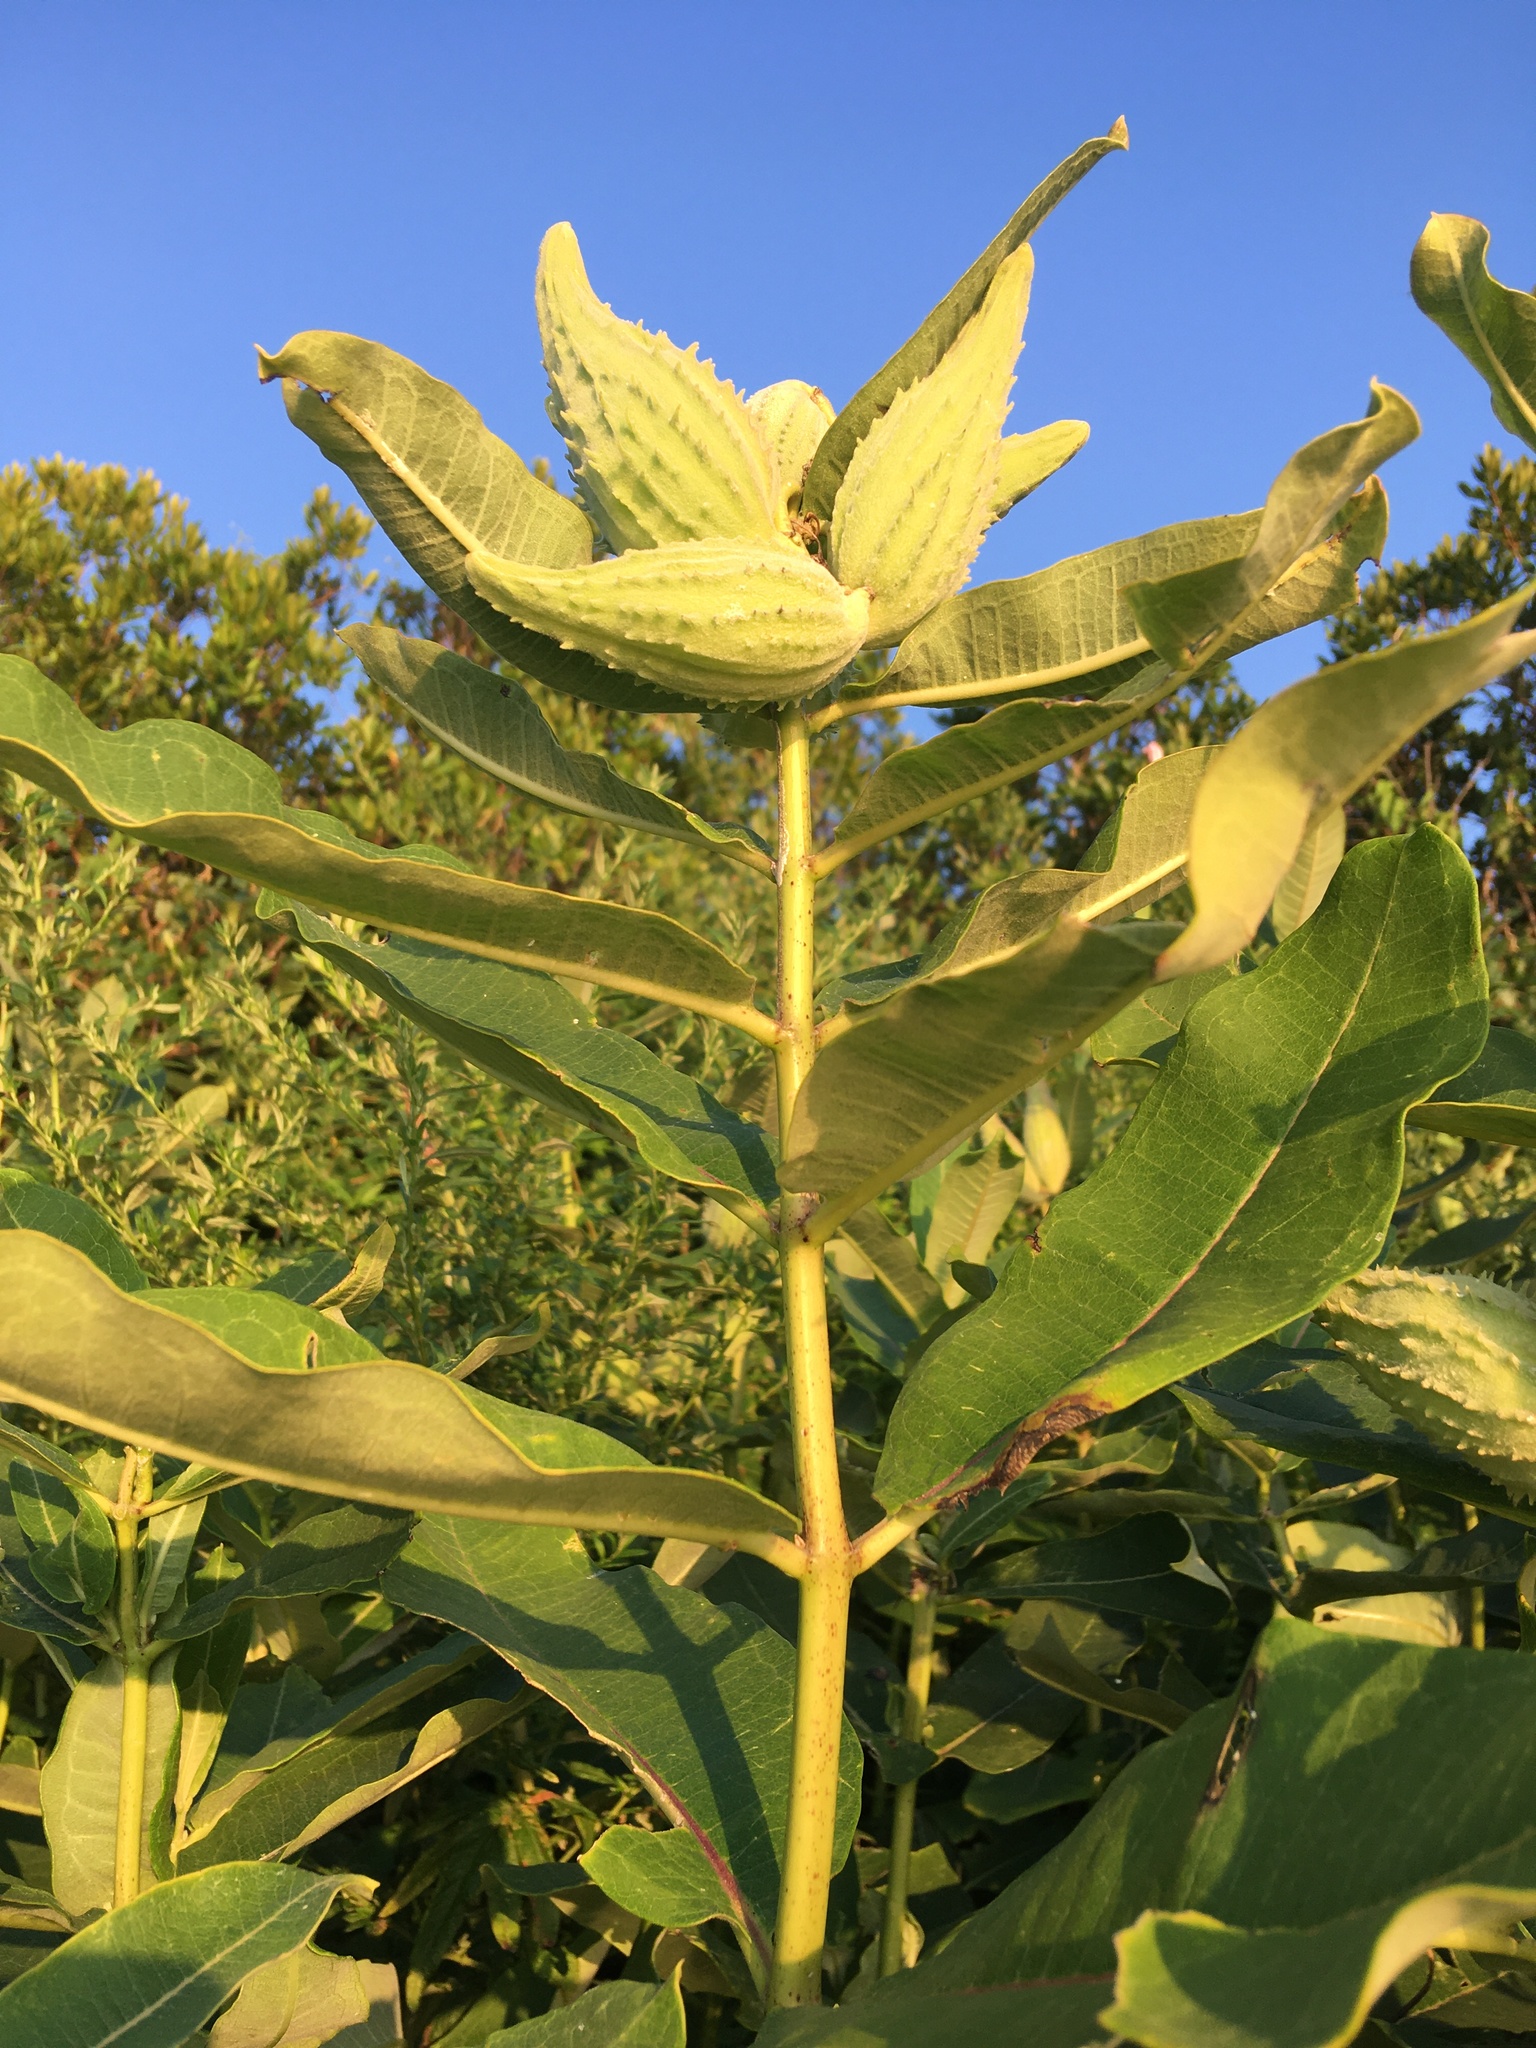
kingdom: Plantae
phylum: Tracheophyta
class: Magnoliopsida
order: Gentianales
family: Apocynaceae
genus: Asclepias
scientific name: Asclepias syriaca
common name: Common milkweed
